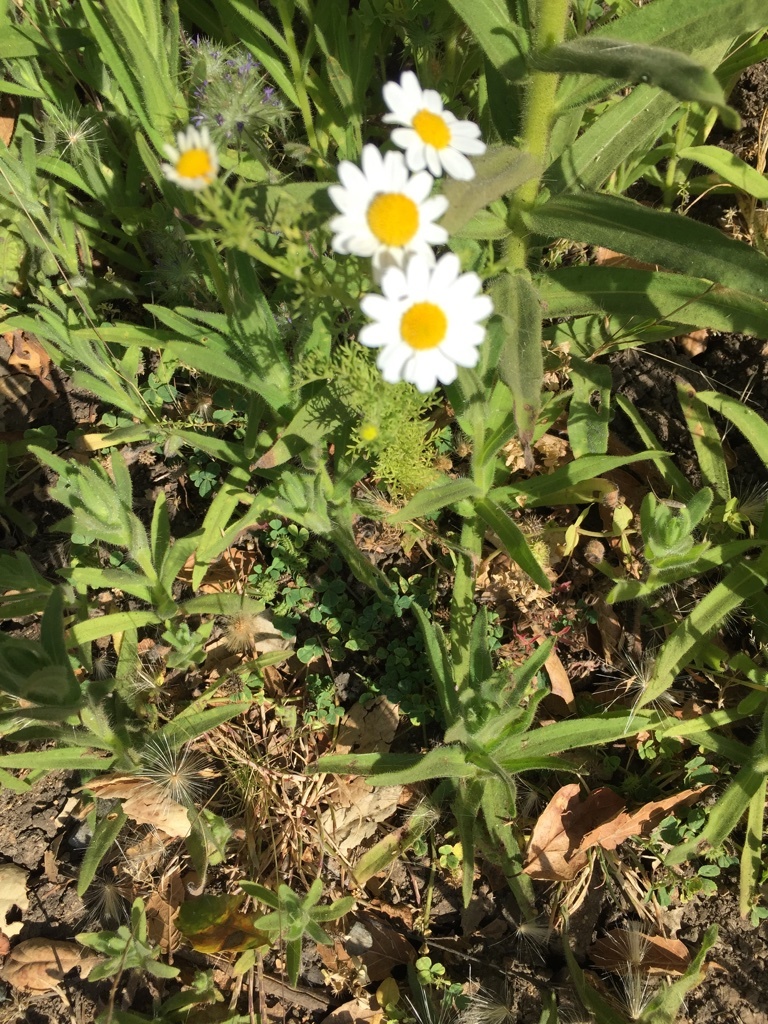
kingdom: Plantae
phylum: Tracheophyta
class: Magnoliopsida
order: Asterales
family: Asteraceae
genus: Anthemis
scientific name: Anthemis cotula
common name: Stinking chamomile
